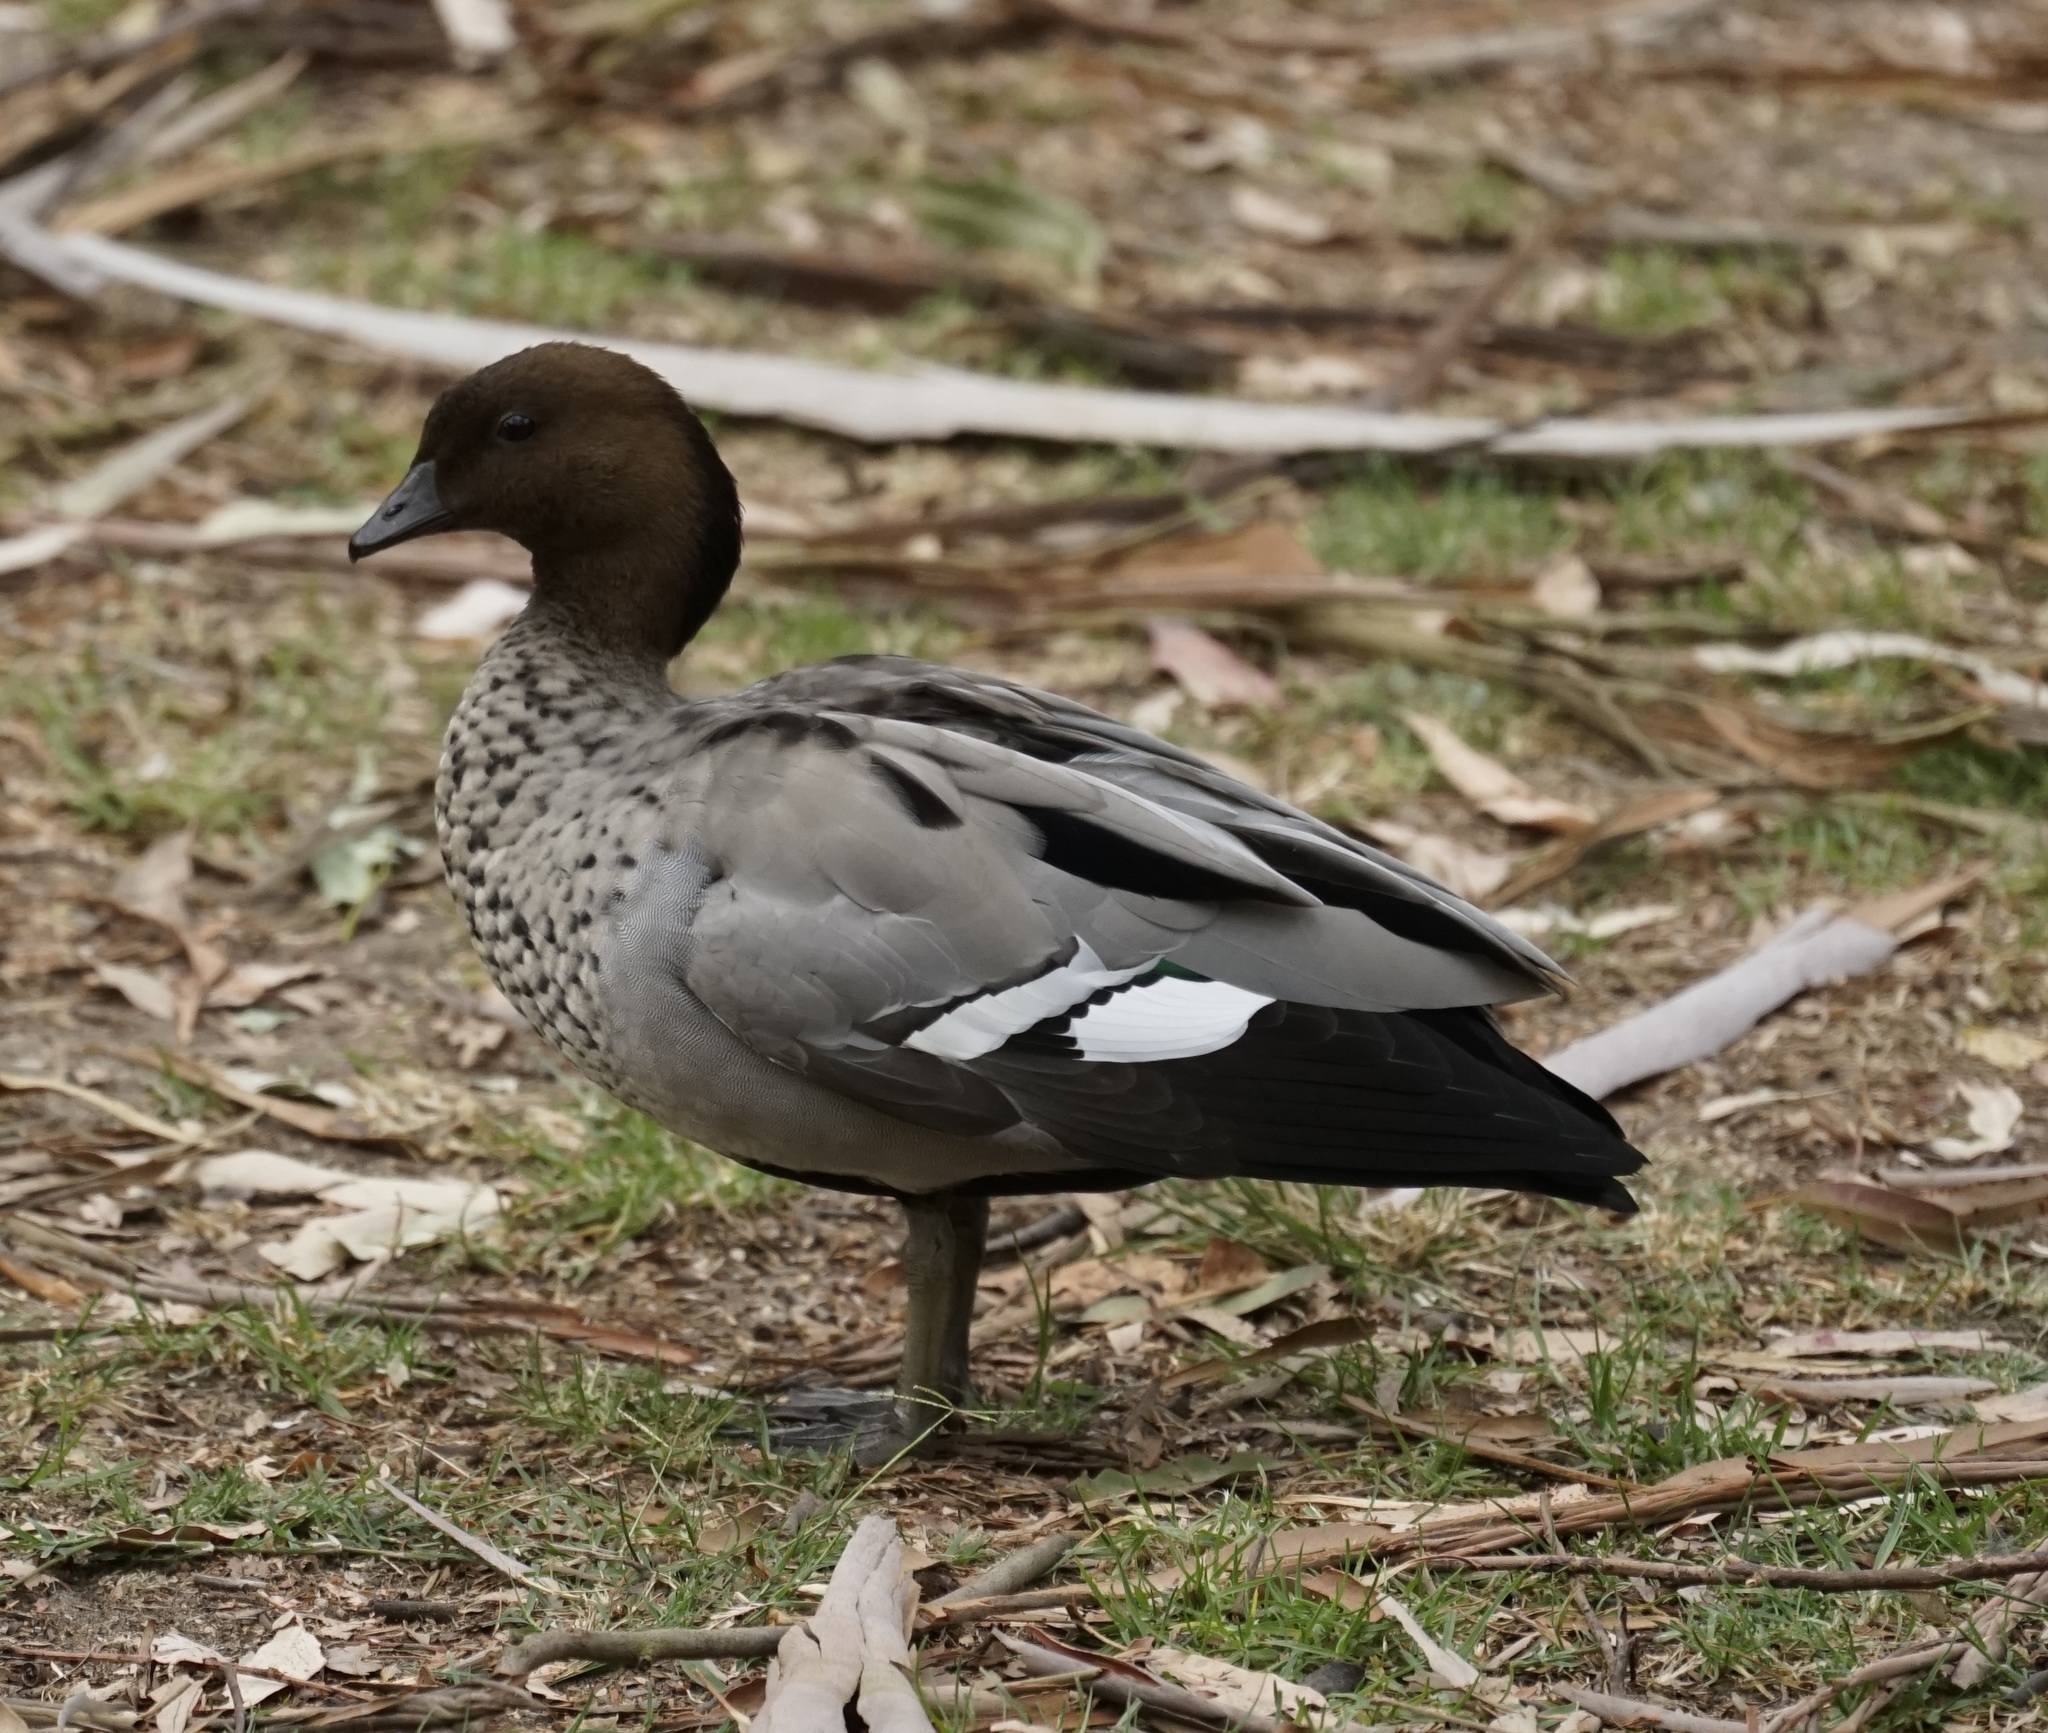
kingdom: Animalia
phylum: Chordata
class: Aves
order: Anseriformes
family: Anatidae
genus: Chenonetta
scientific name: Chenonetta jubata
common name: Maned duck
